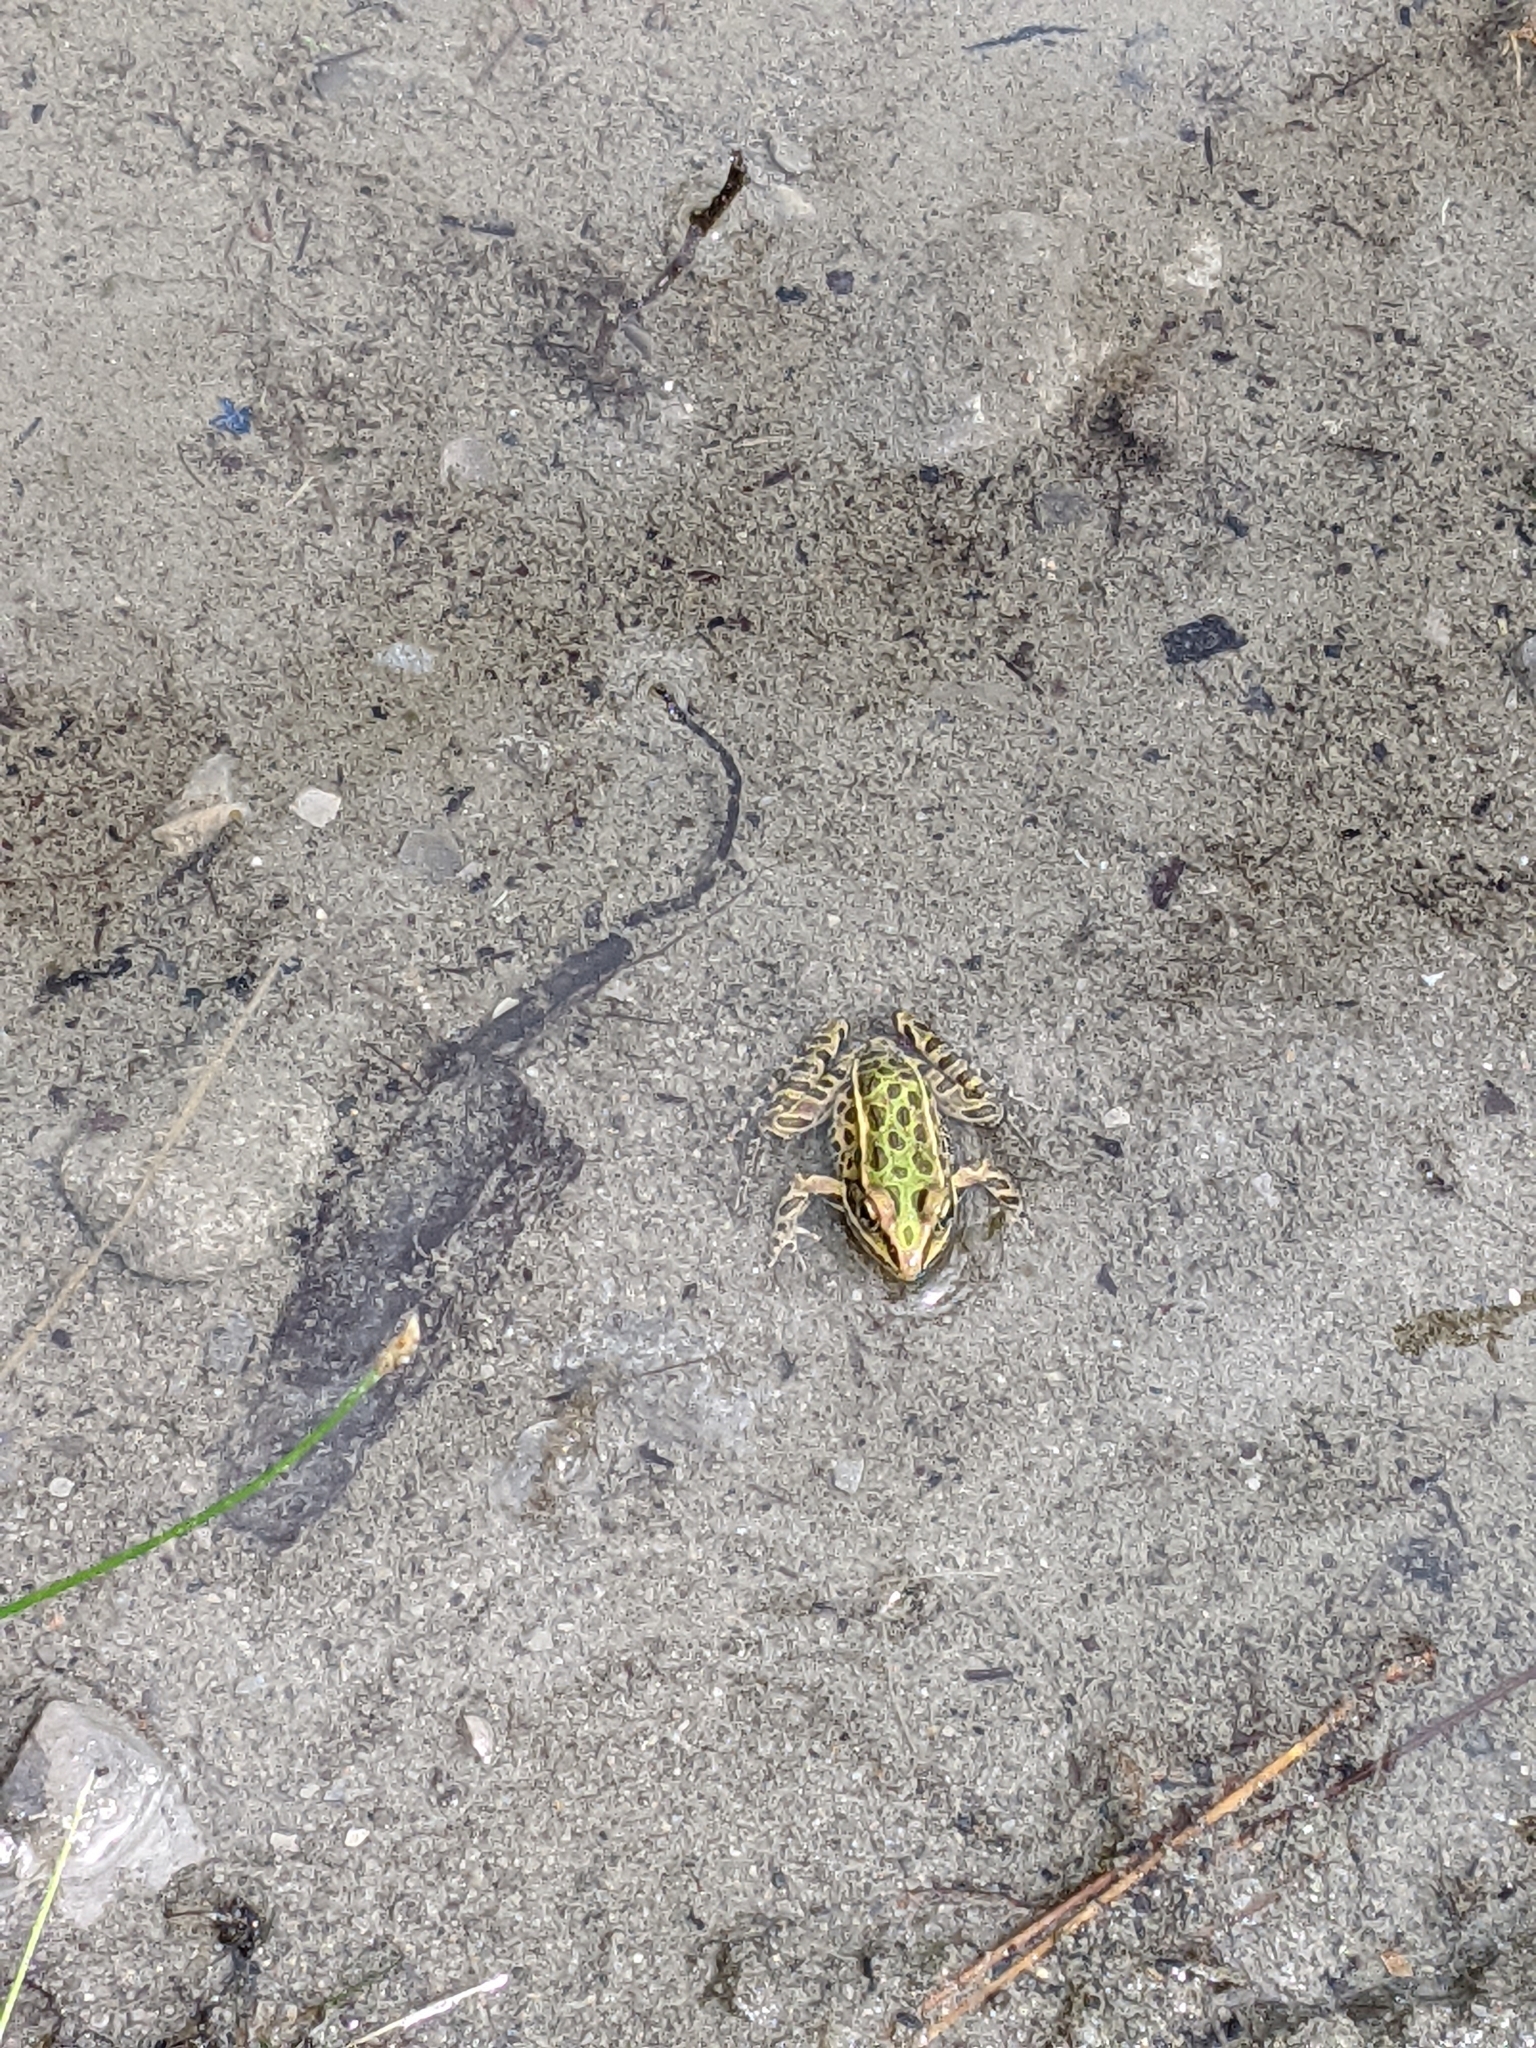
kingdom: Animalia
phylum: Chordata
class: Amphibia
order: Anura
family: Ranidae
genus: Lithobates
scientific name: Lithobates pipiens
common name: Northern leopard frog
